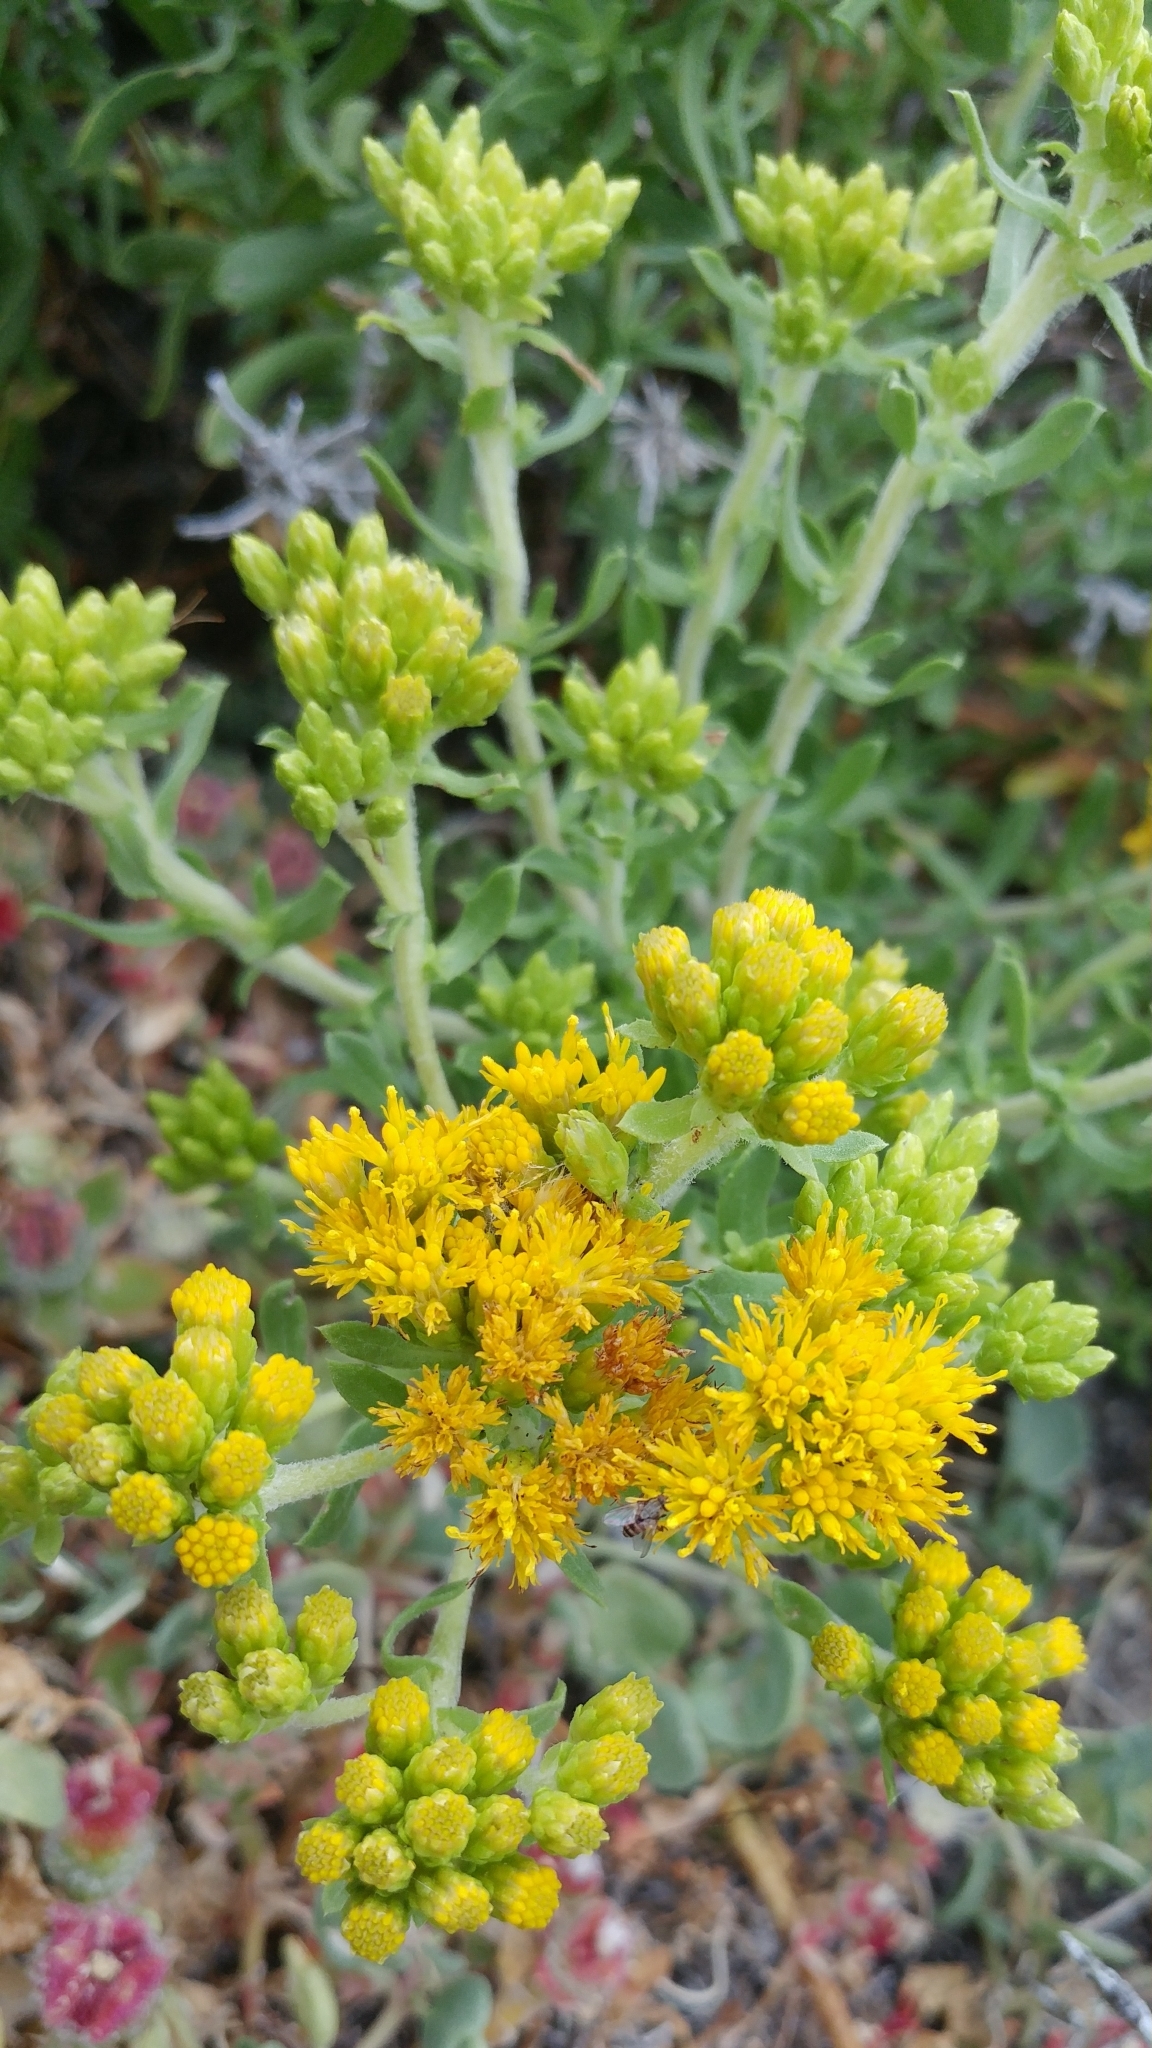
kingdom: Plantae
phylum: Tracheophyta
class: Magnoliopsida
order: Asterales
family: Asteraceae
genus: Isocoma
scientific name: Isocoma menziesii
